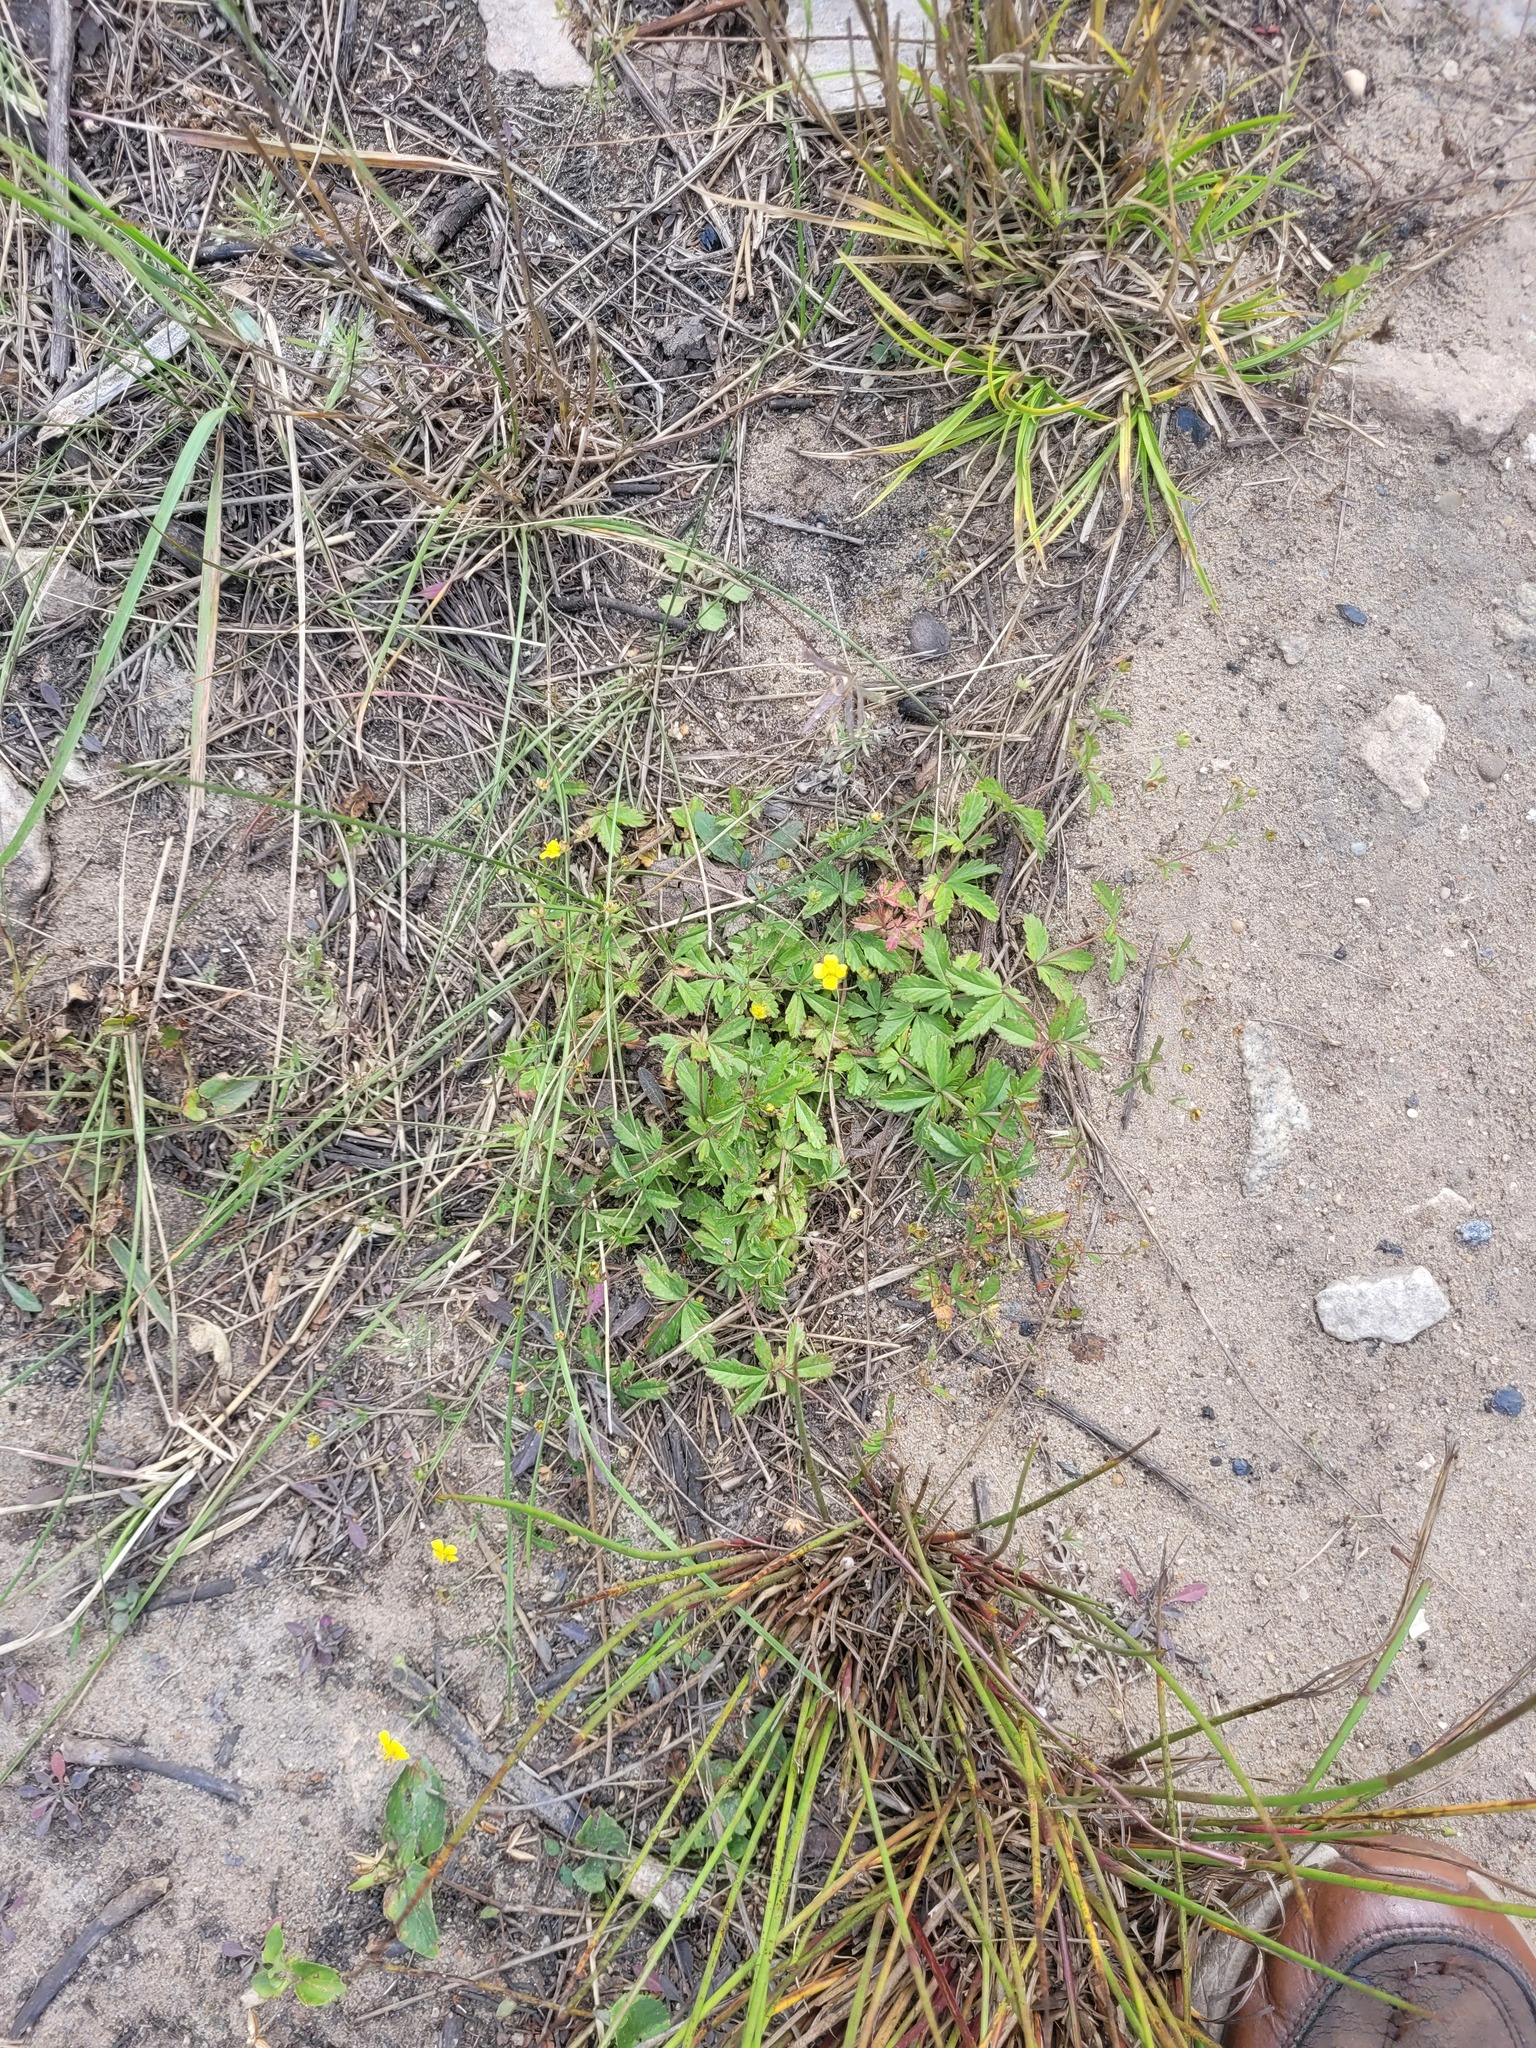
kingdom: Plantae
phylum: Tracheophyta
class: Magnoliopsida
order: Rosales
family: Rosaceae
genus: Potentilla
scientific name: Potentilla erecta
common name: Tormentil
